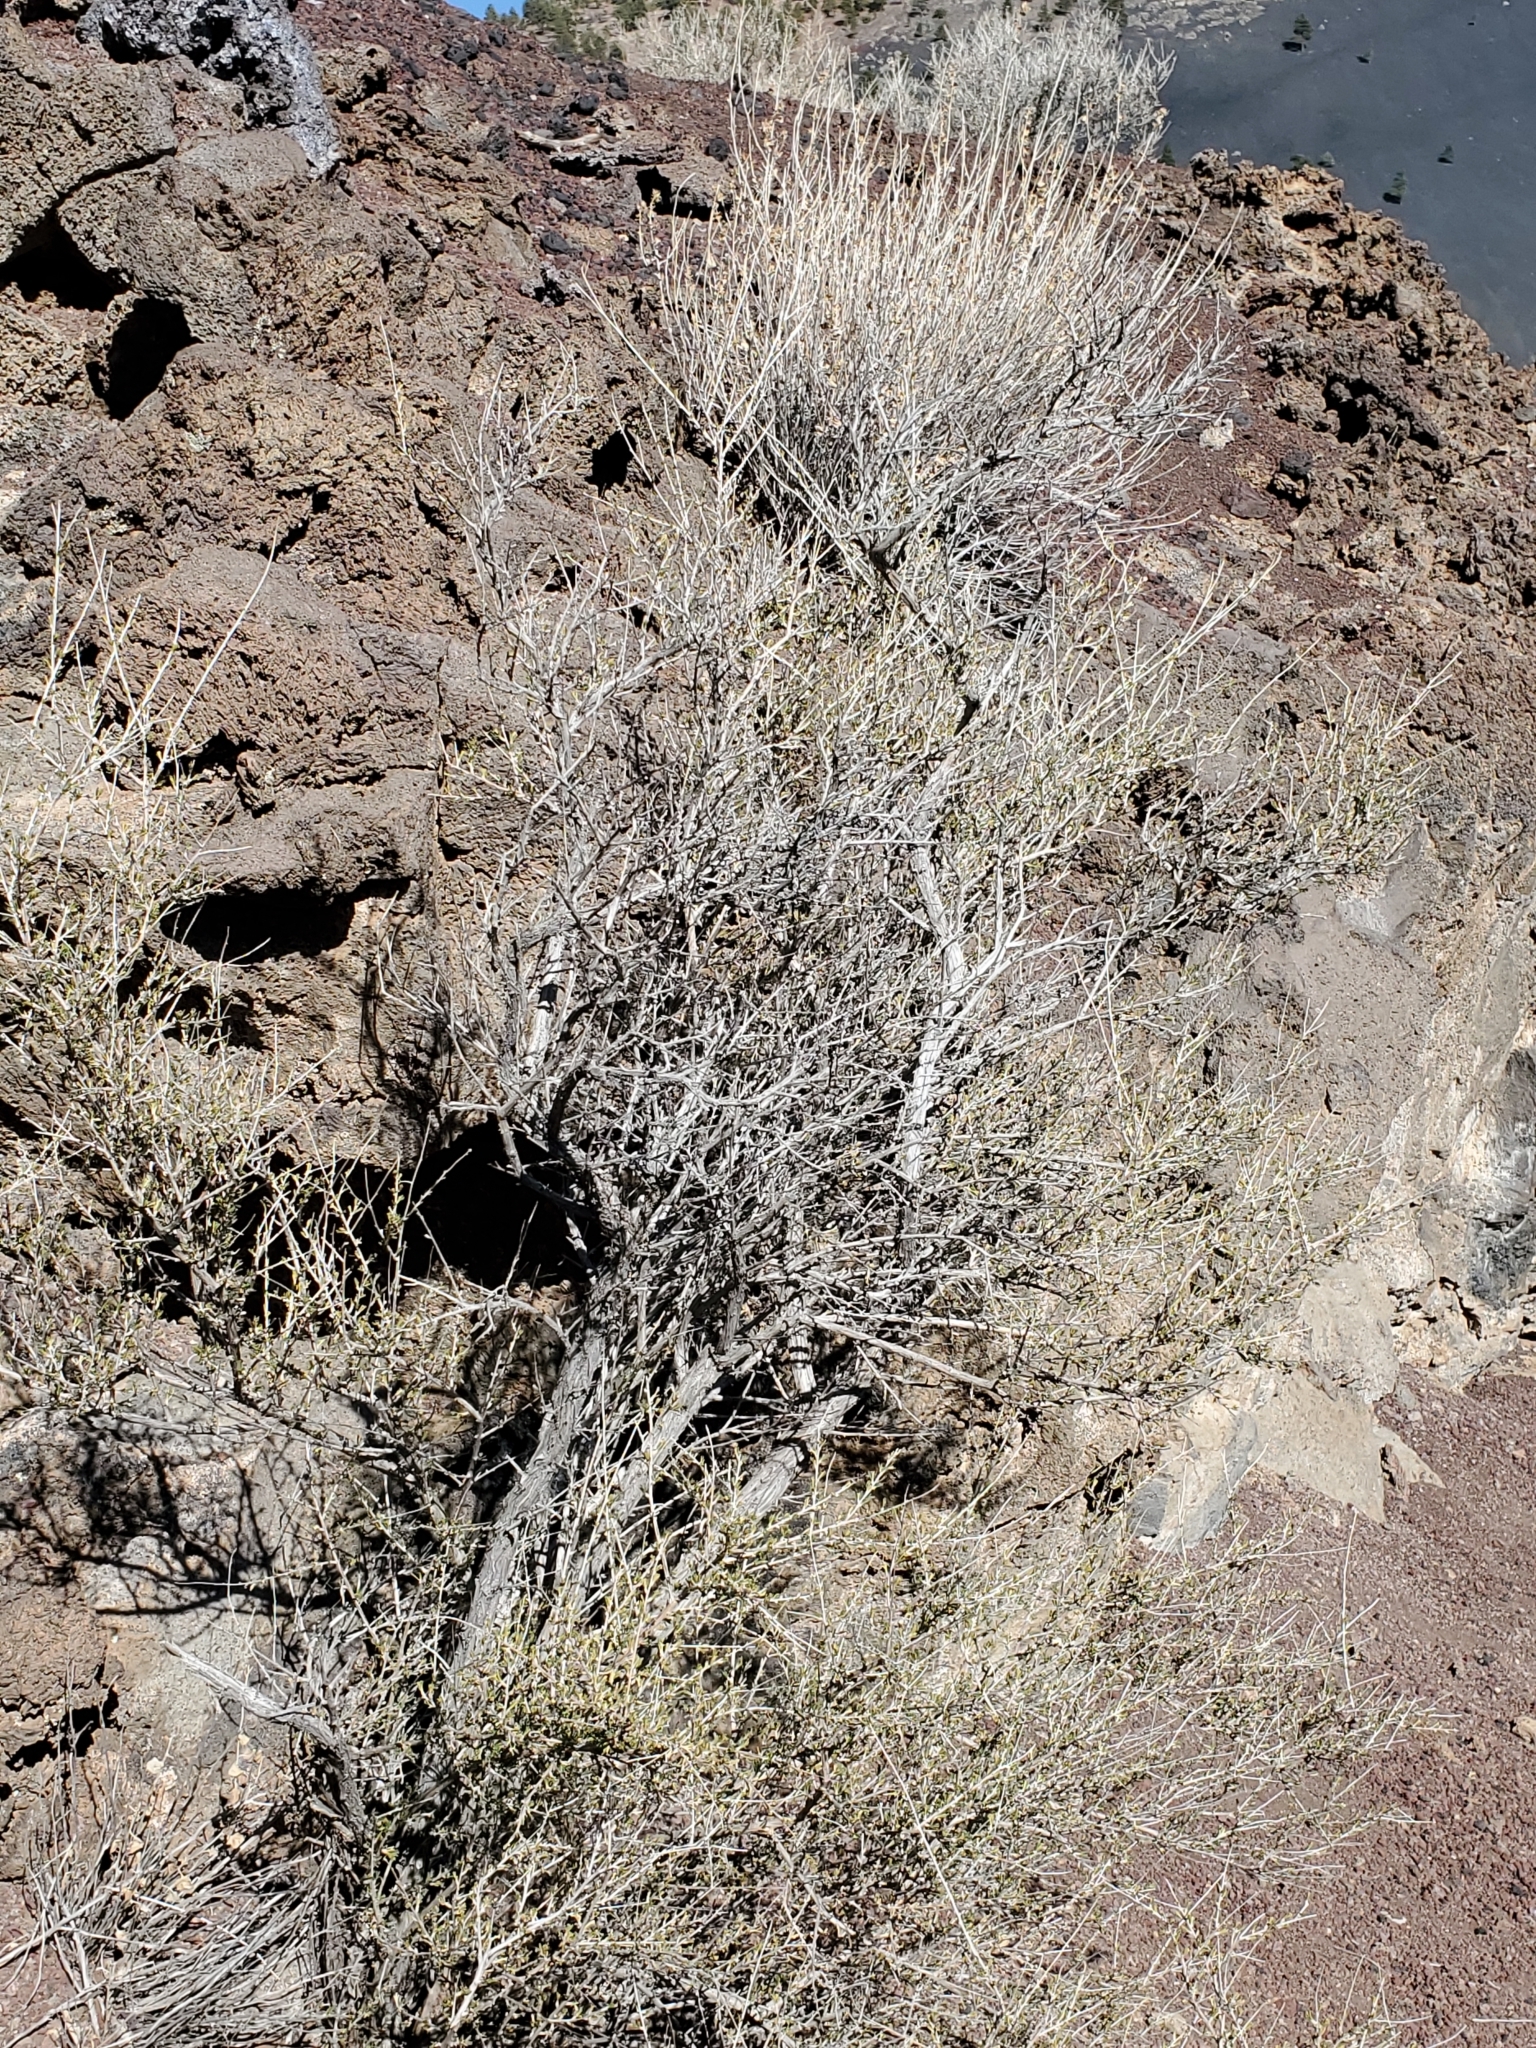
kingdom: Plantae
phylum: Tracheophyta
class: Magnoliopsida
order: Rosales
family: Rosaceae
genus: Fallugia
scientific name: Fallugia paradoxa
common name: Apache-plume
